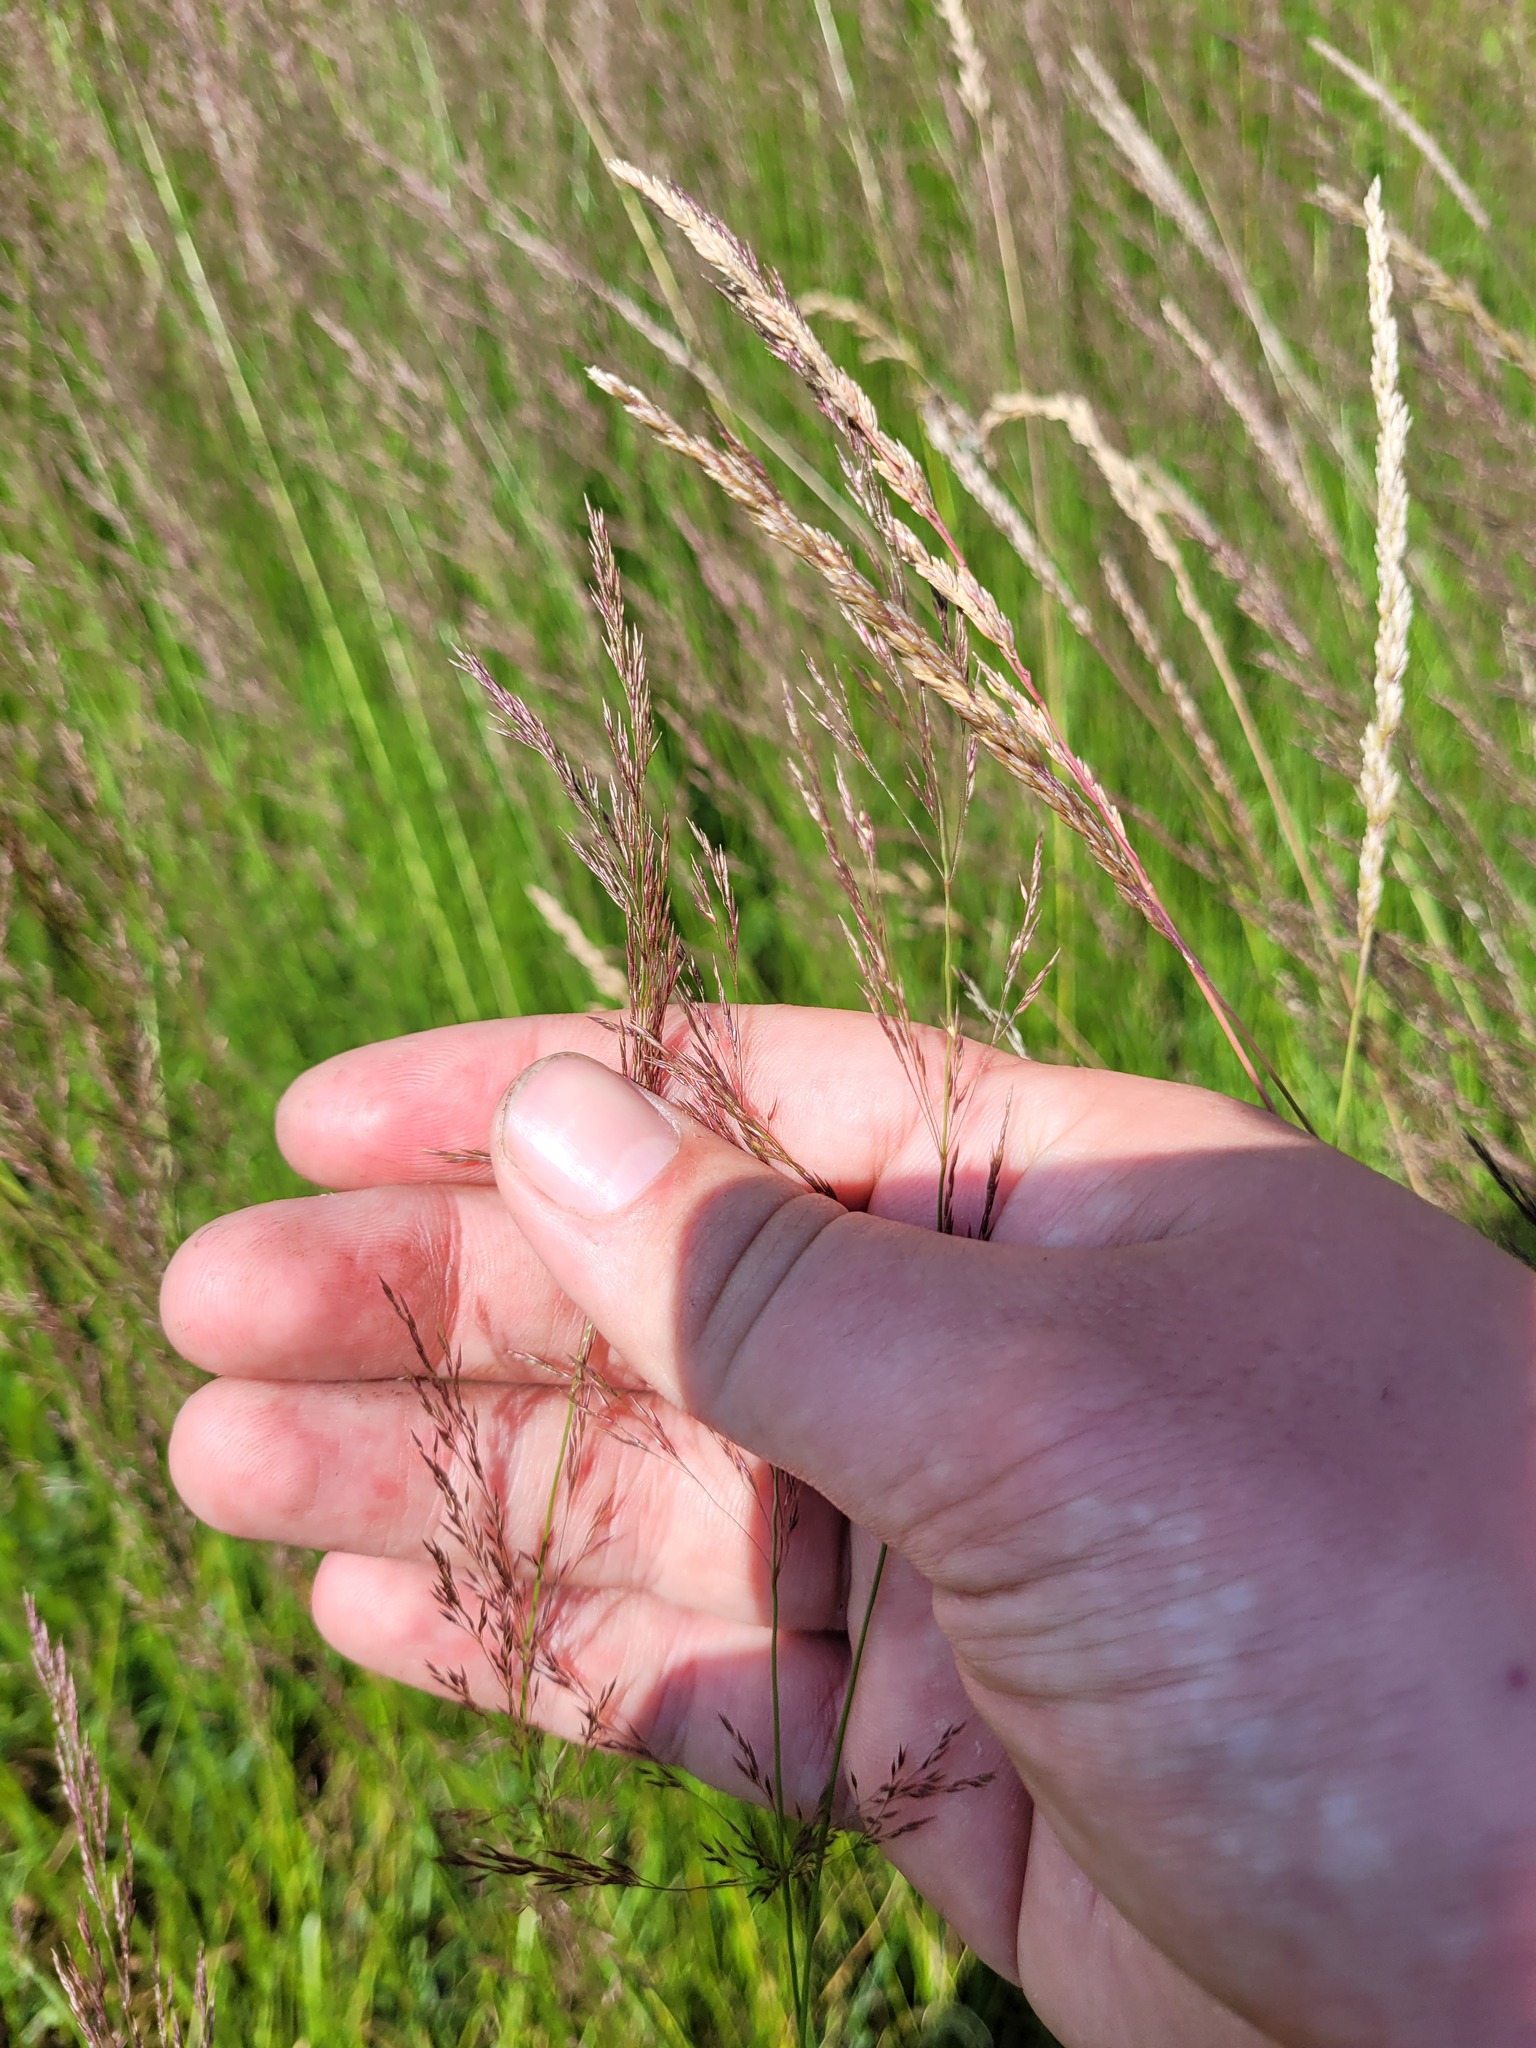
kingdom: Plantae
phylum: Tracheophyta
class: Liliopsida
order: Poales
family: Poaceae
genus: Agrostis
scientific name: Agrostis vinealis
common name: Brown bent
